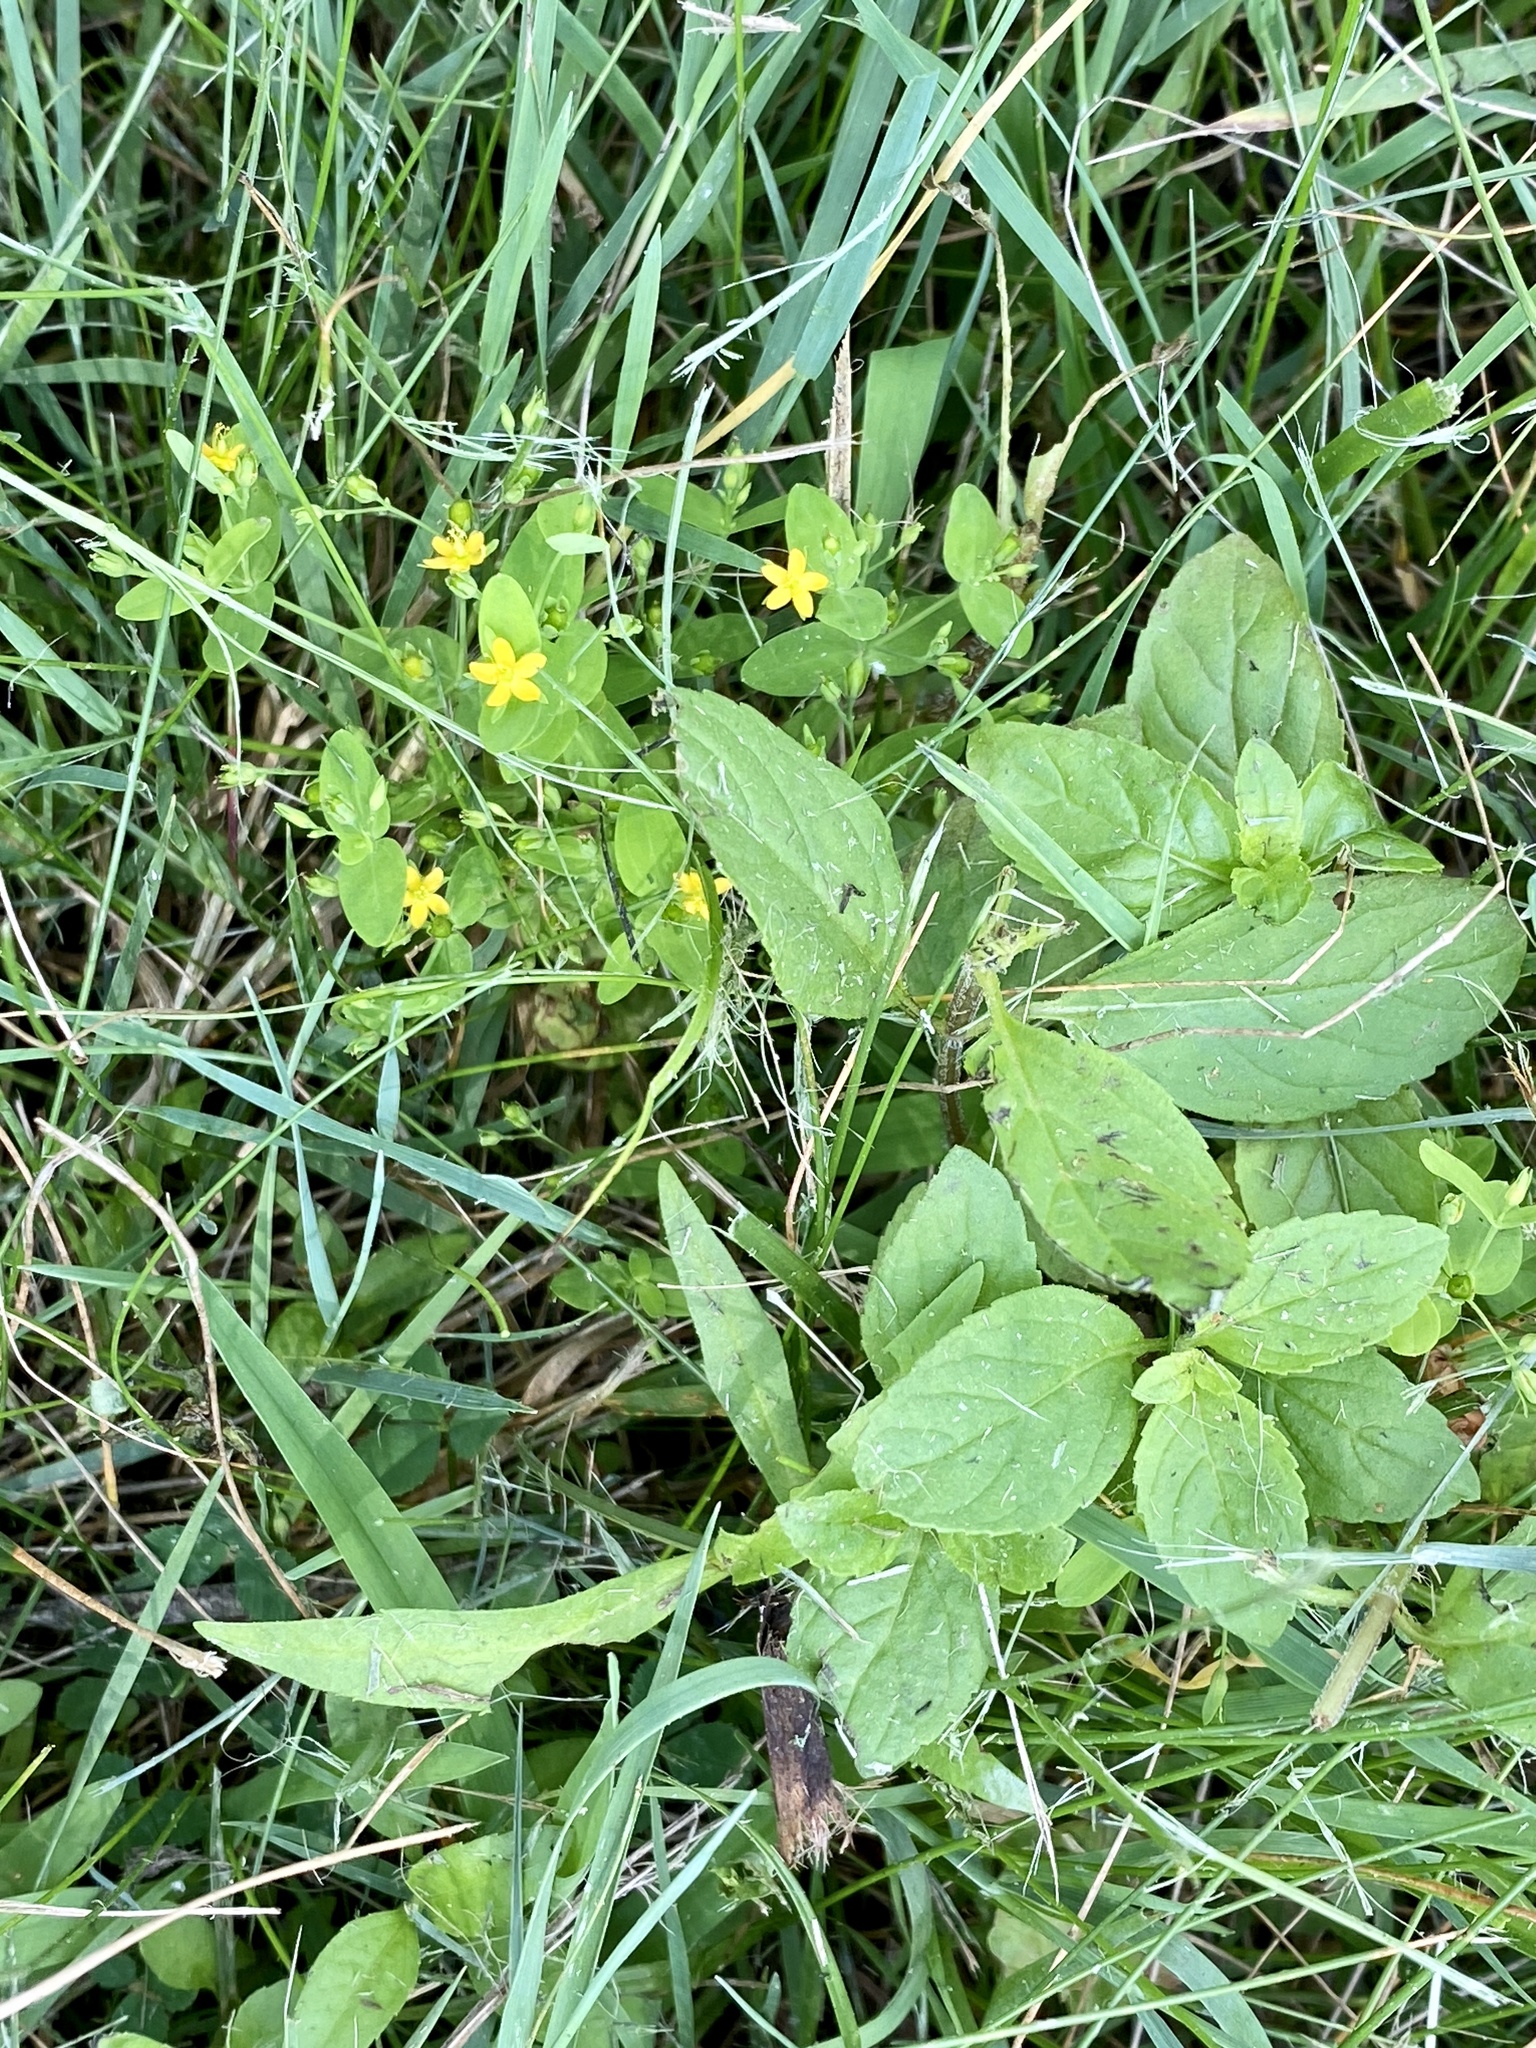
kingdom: Plantae
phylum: Tracheophyta
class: Magnoliopsida
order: Malpighiales
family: Hypericaceae
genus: Hypericum
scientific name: Hypericum mutilum
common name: Dwarf st. john's-wort
